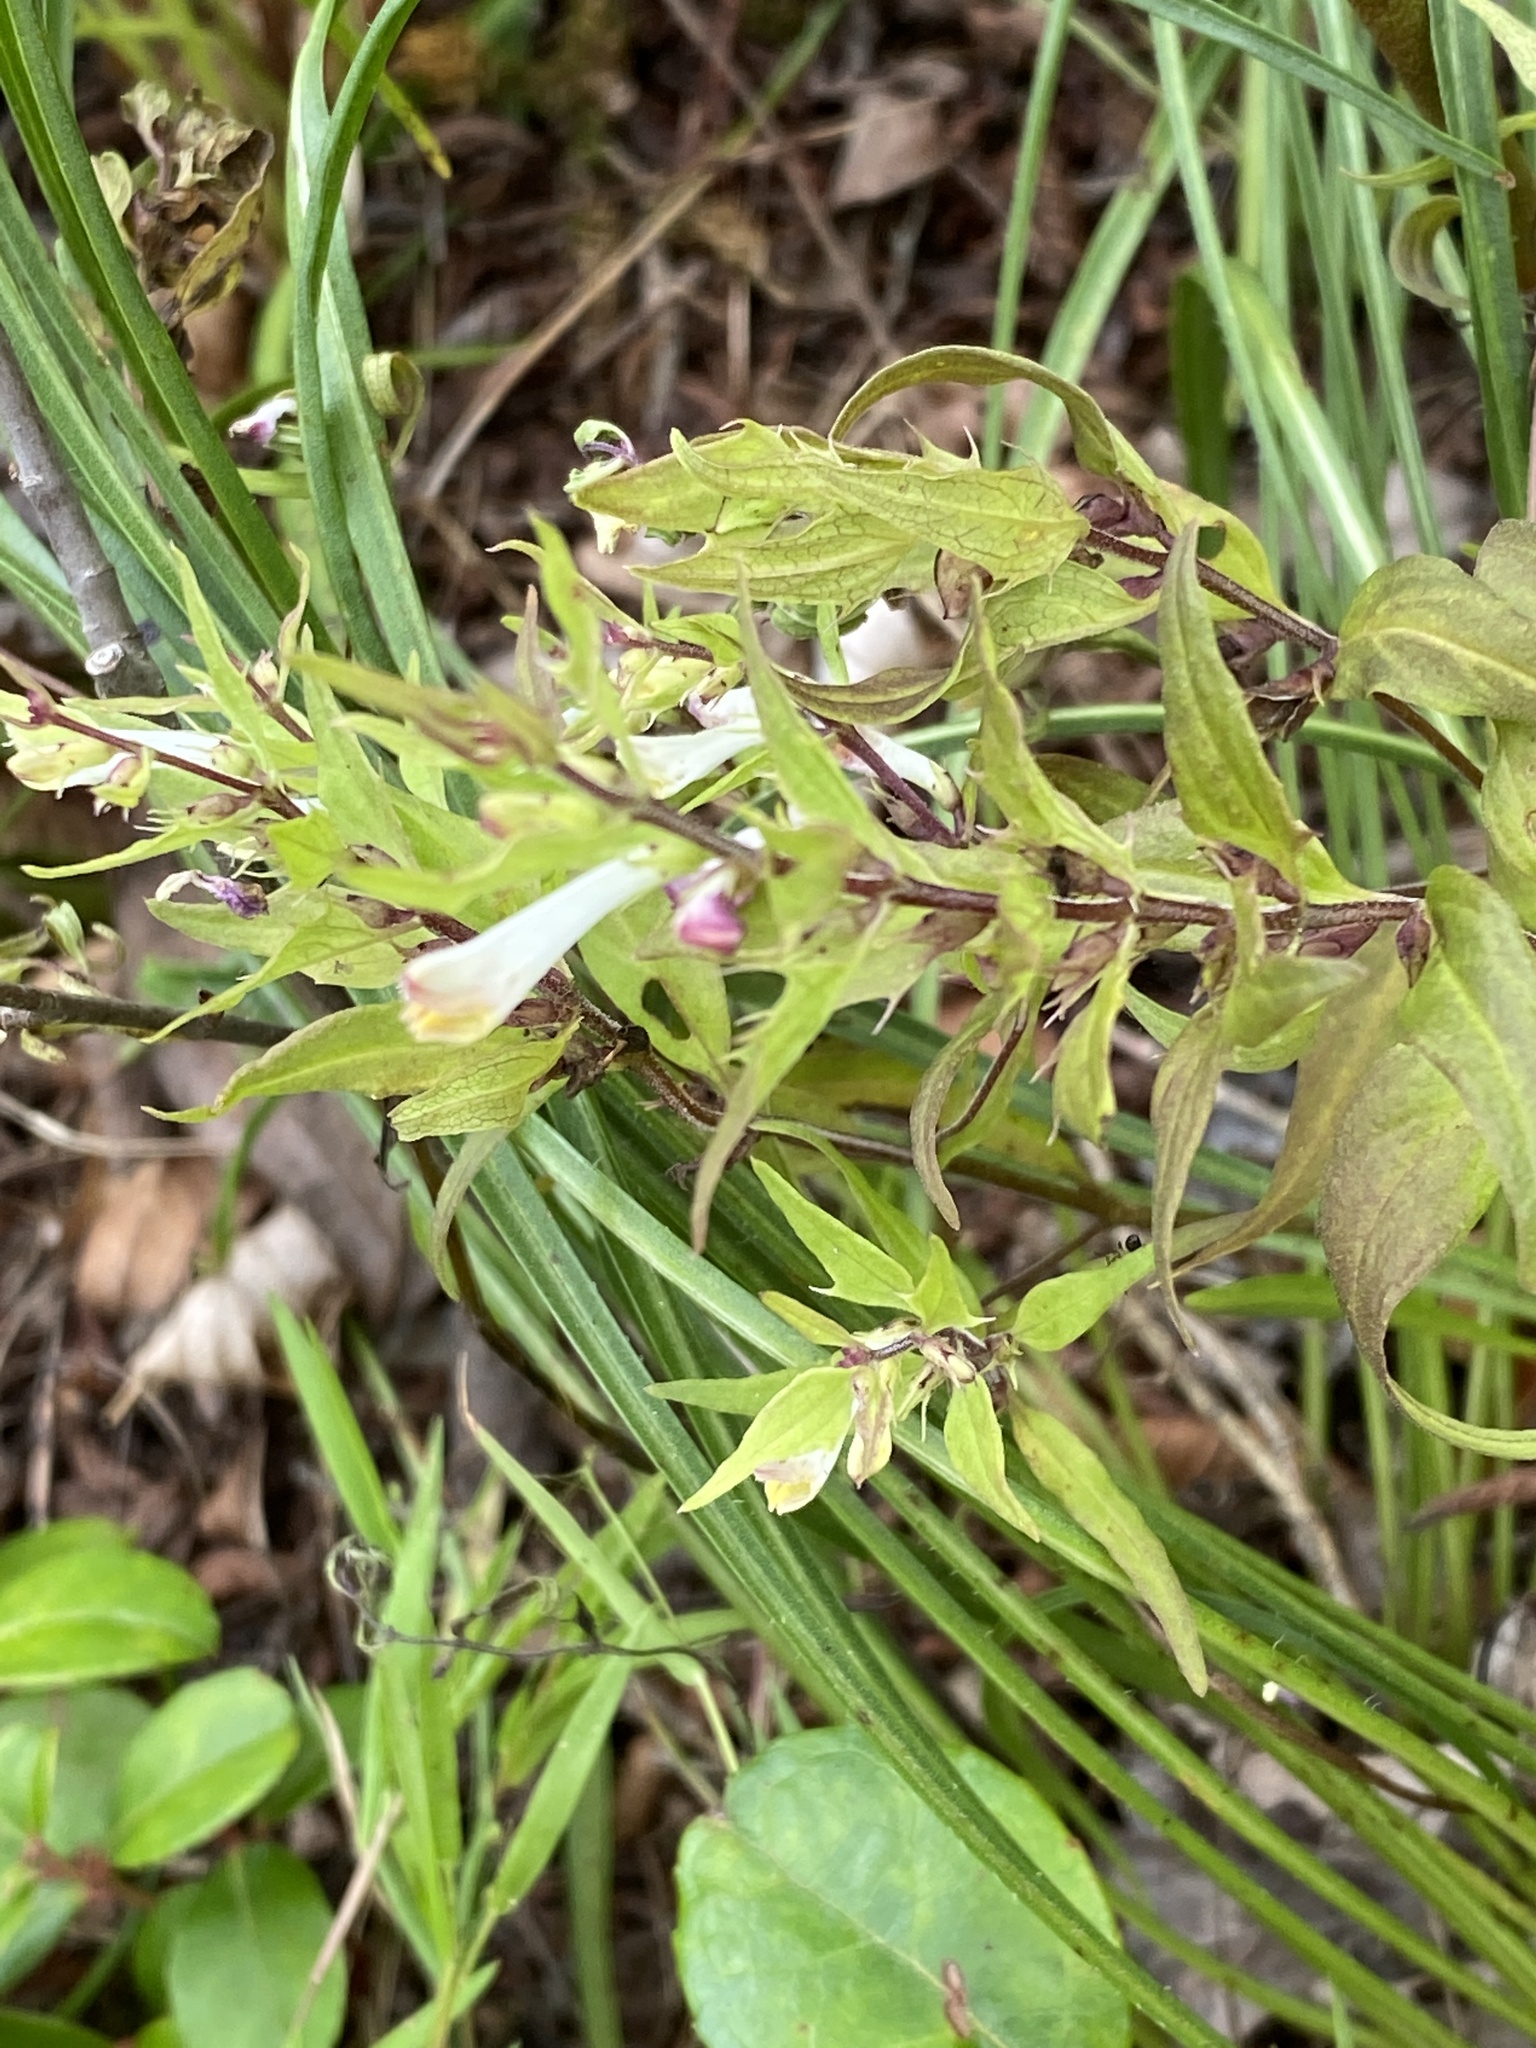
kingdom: Plantae
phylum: Tracheophyta
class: Magnoliopsida
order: Lamiales
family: Orobanchaceae
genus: Melampyrum
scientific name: Melampyrum lineare
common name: American cow-wheat
